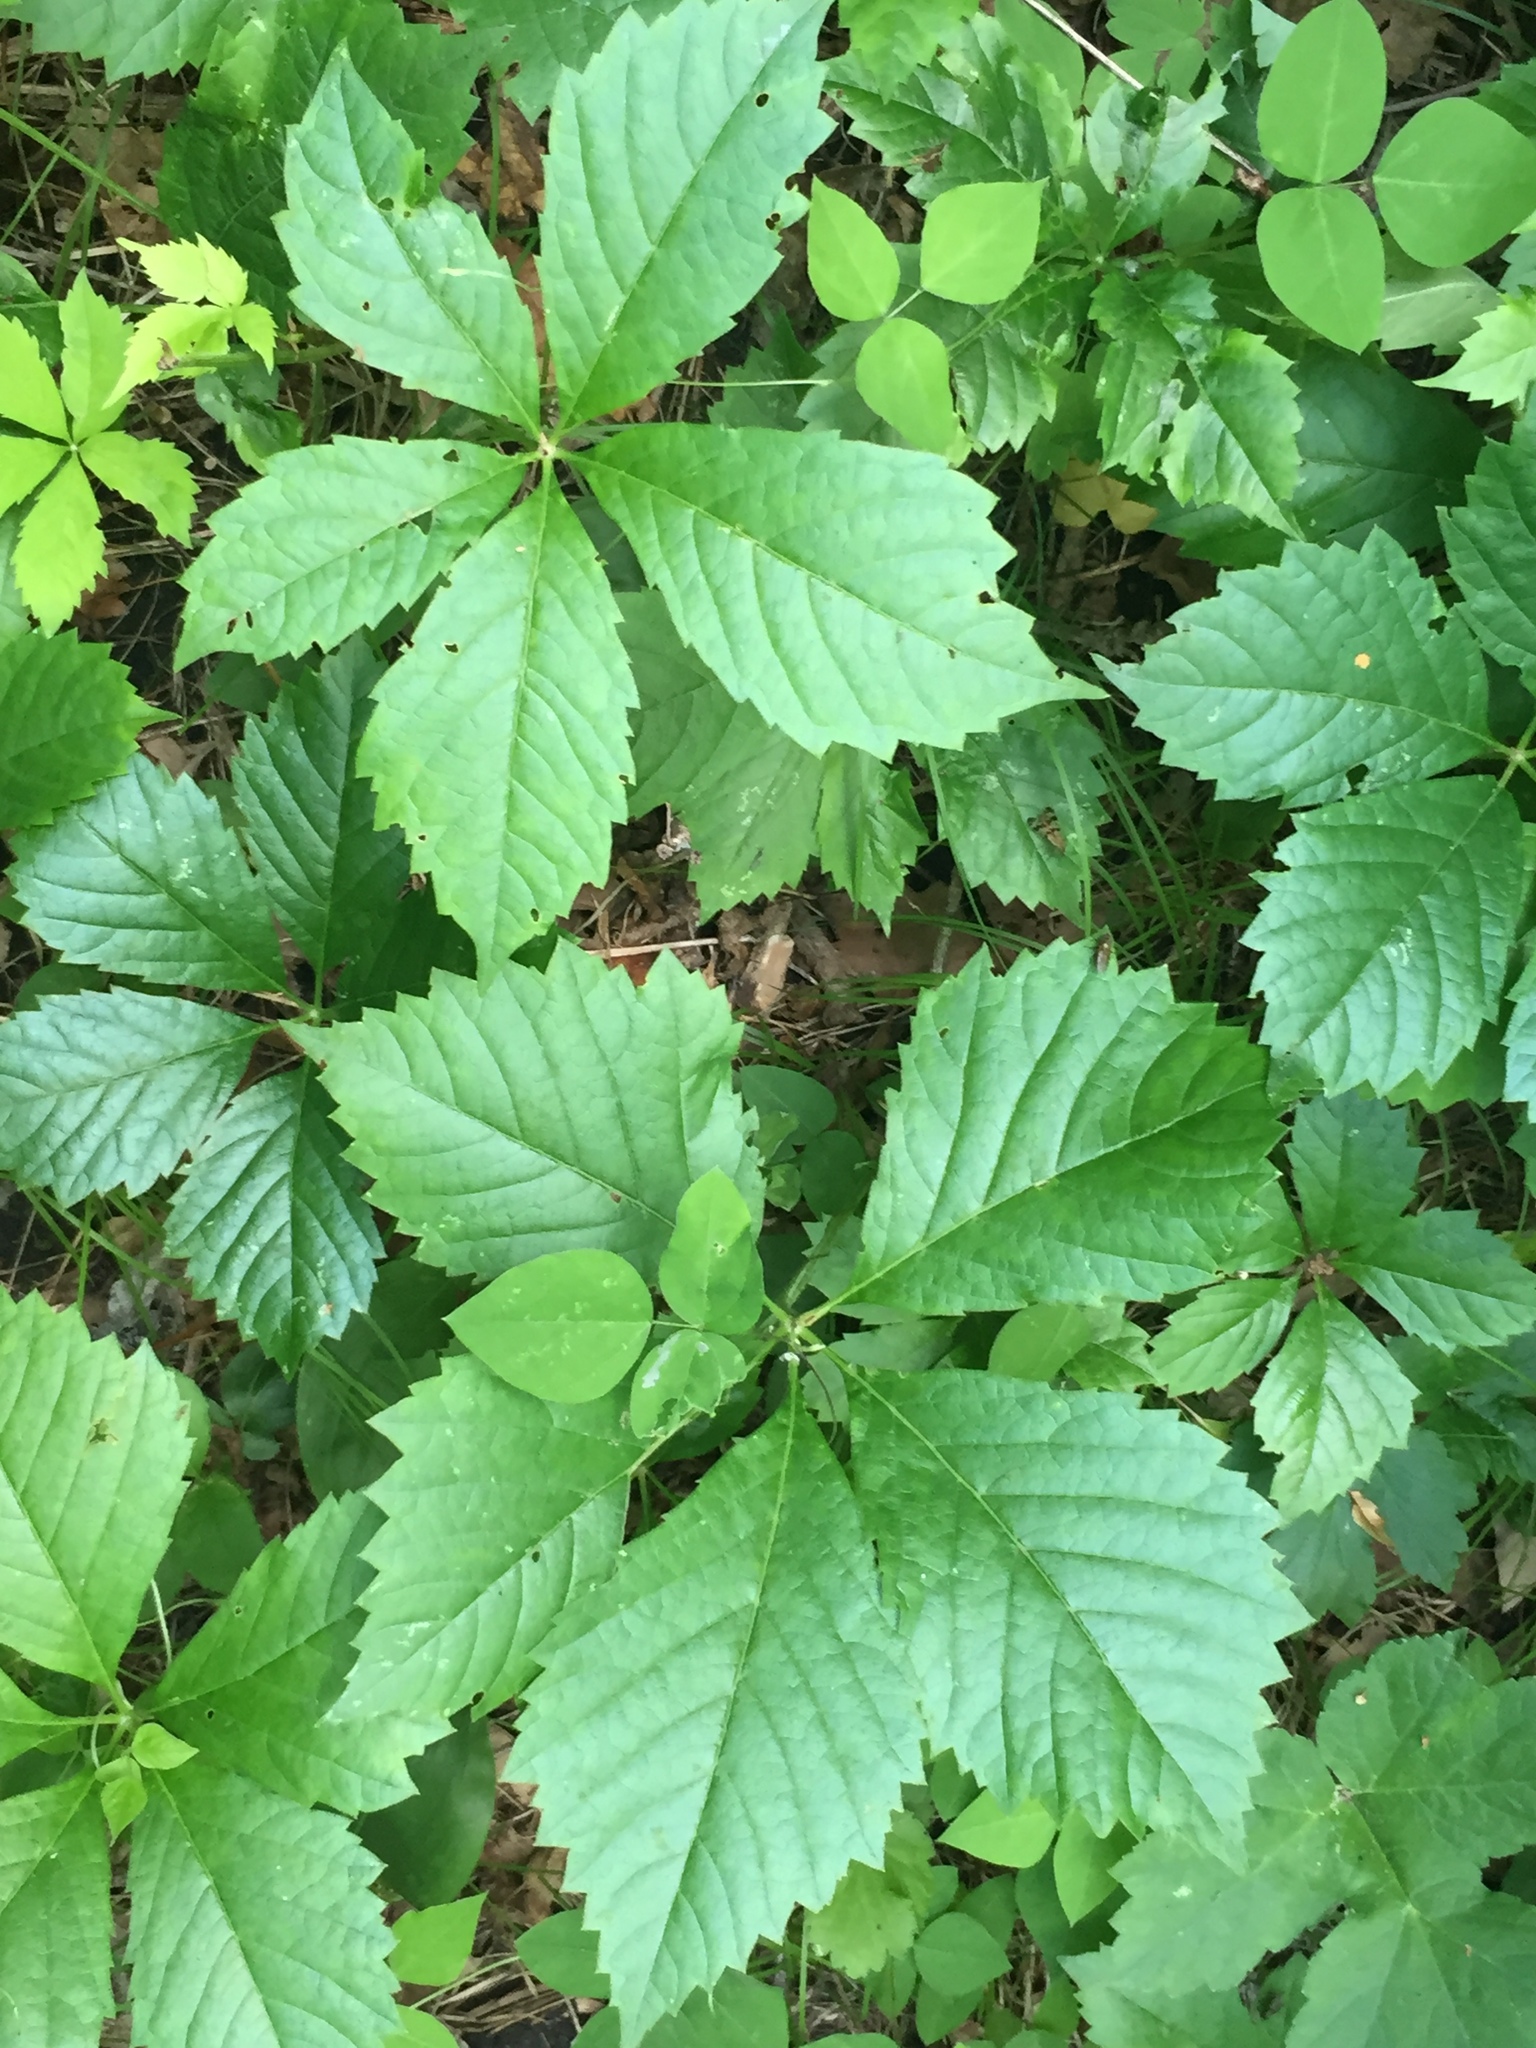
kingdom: Plantae
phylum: Tracheophyta
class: Magnoliopsida
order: Vitales
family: Vitaceae
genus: Parthenocissus
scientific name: Parthenocissus quinquefolia
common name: Virginia-creeper
